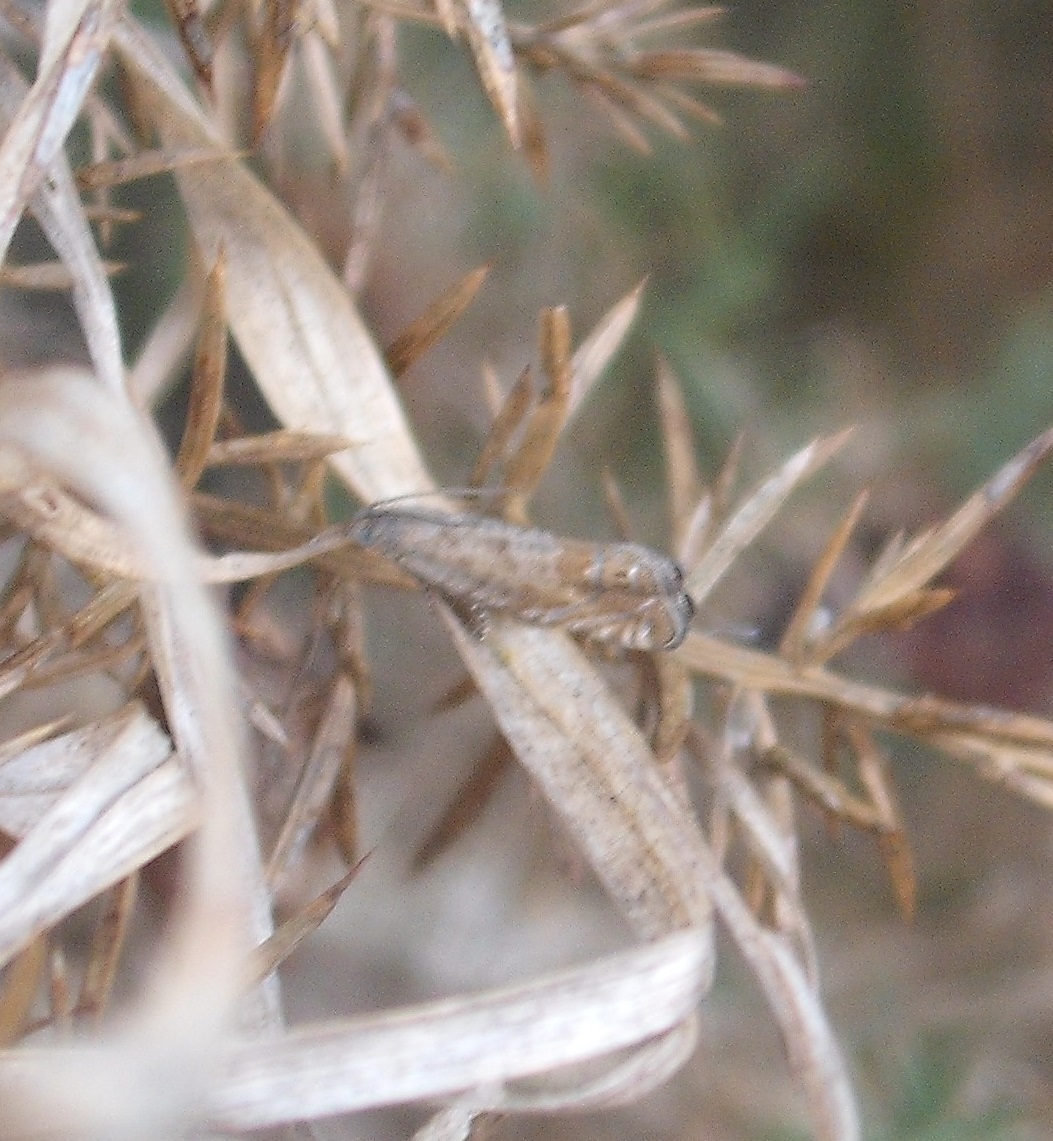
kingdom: Animalia
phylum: Arthropoda
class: Insecta
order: Lepidoptera
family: Tortricidae
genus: Cydia
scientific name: Cydia succedana
